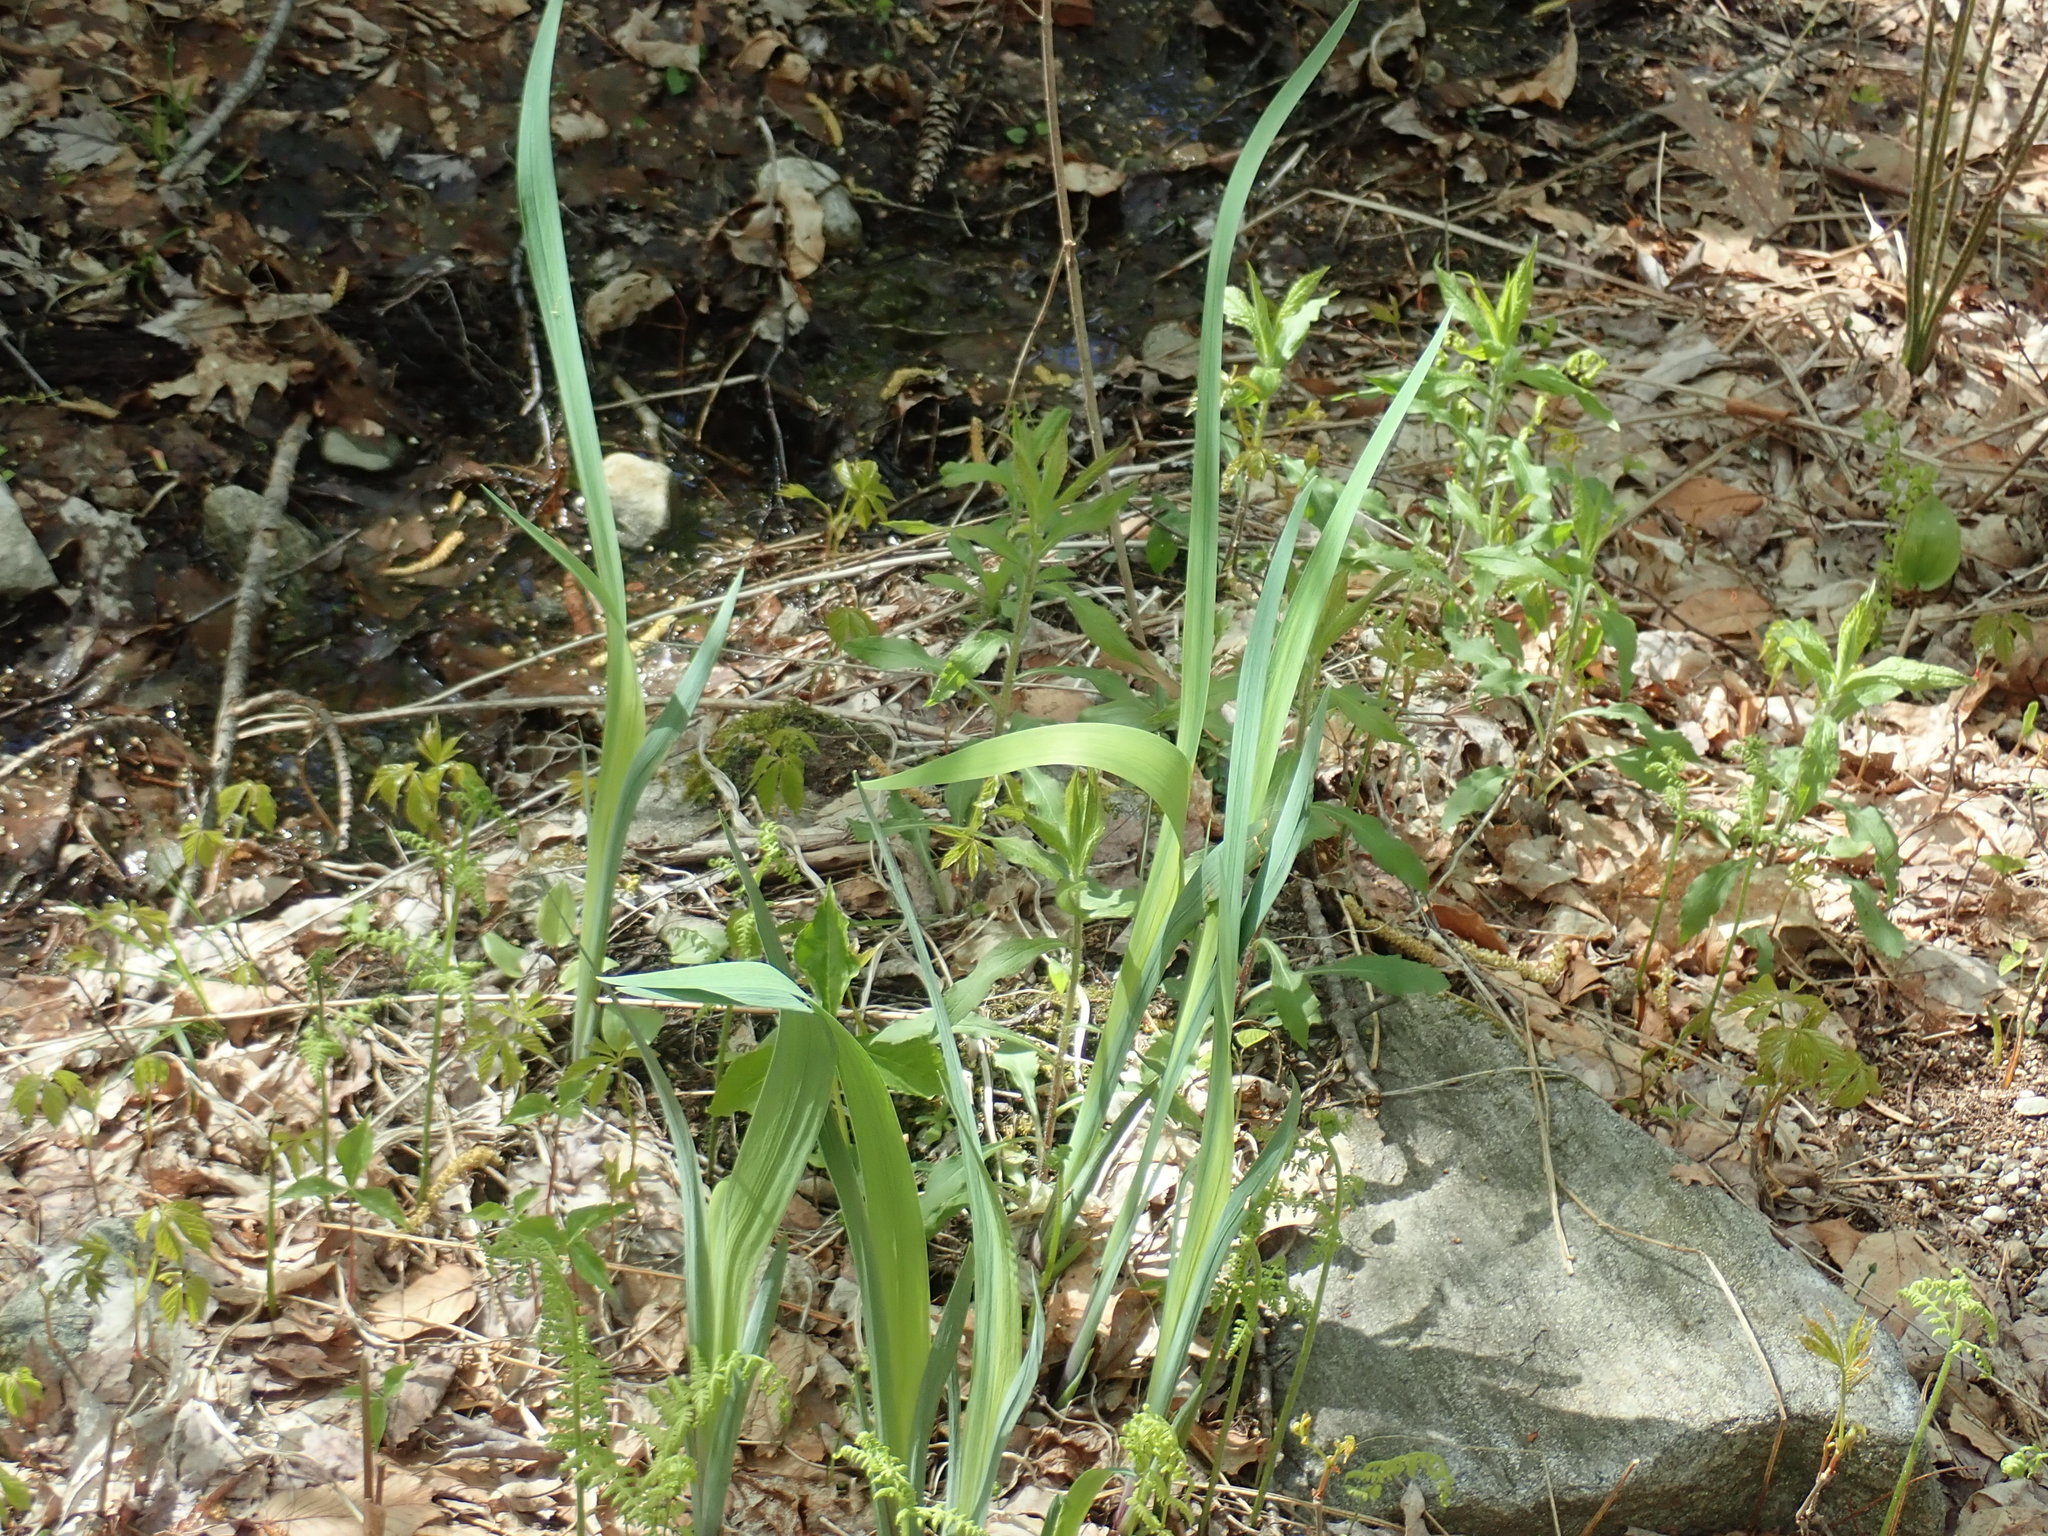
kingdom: Plantae
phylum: Tracheophyta
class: Liliopsida
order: Asparagales
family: Iridaceae
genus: Iris
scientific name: Iris
